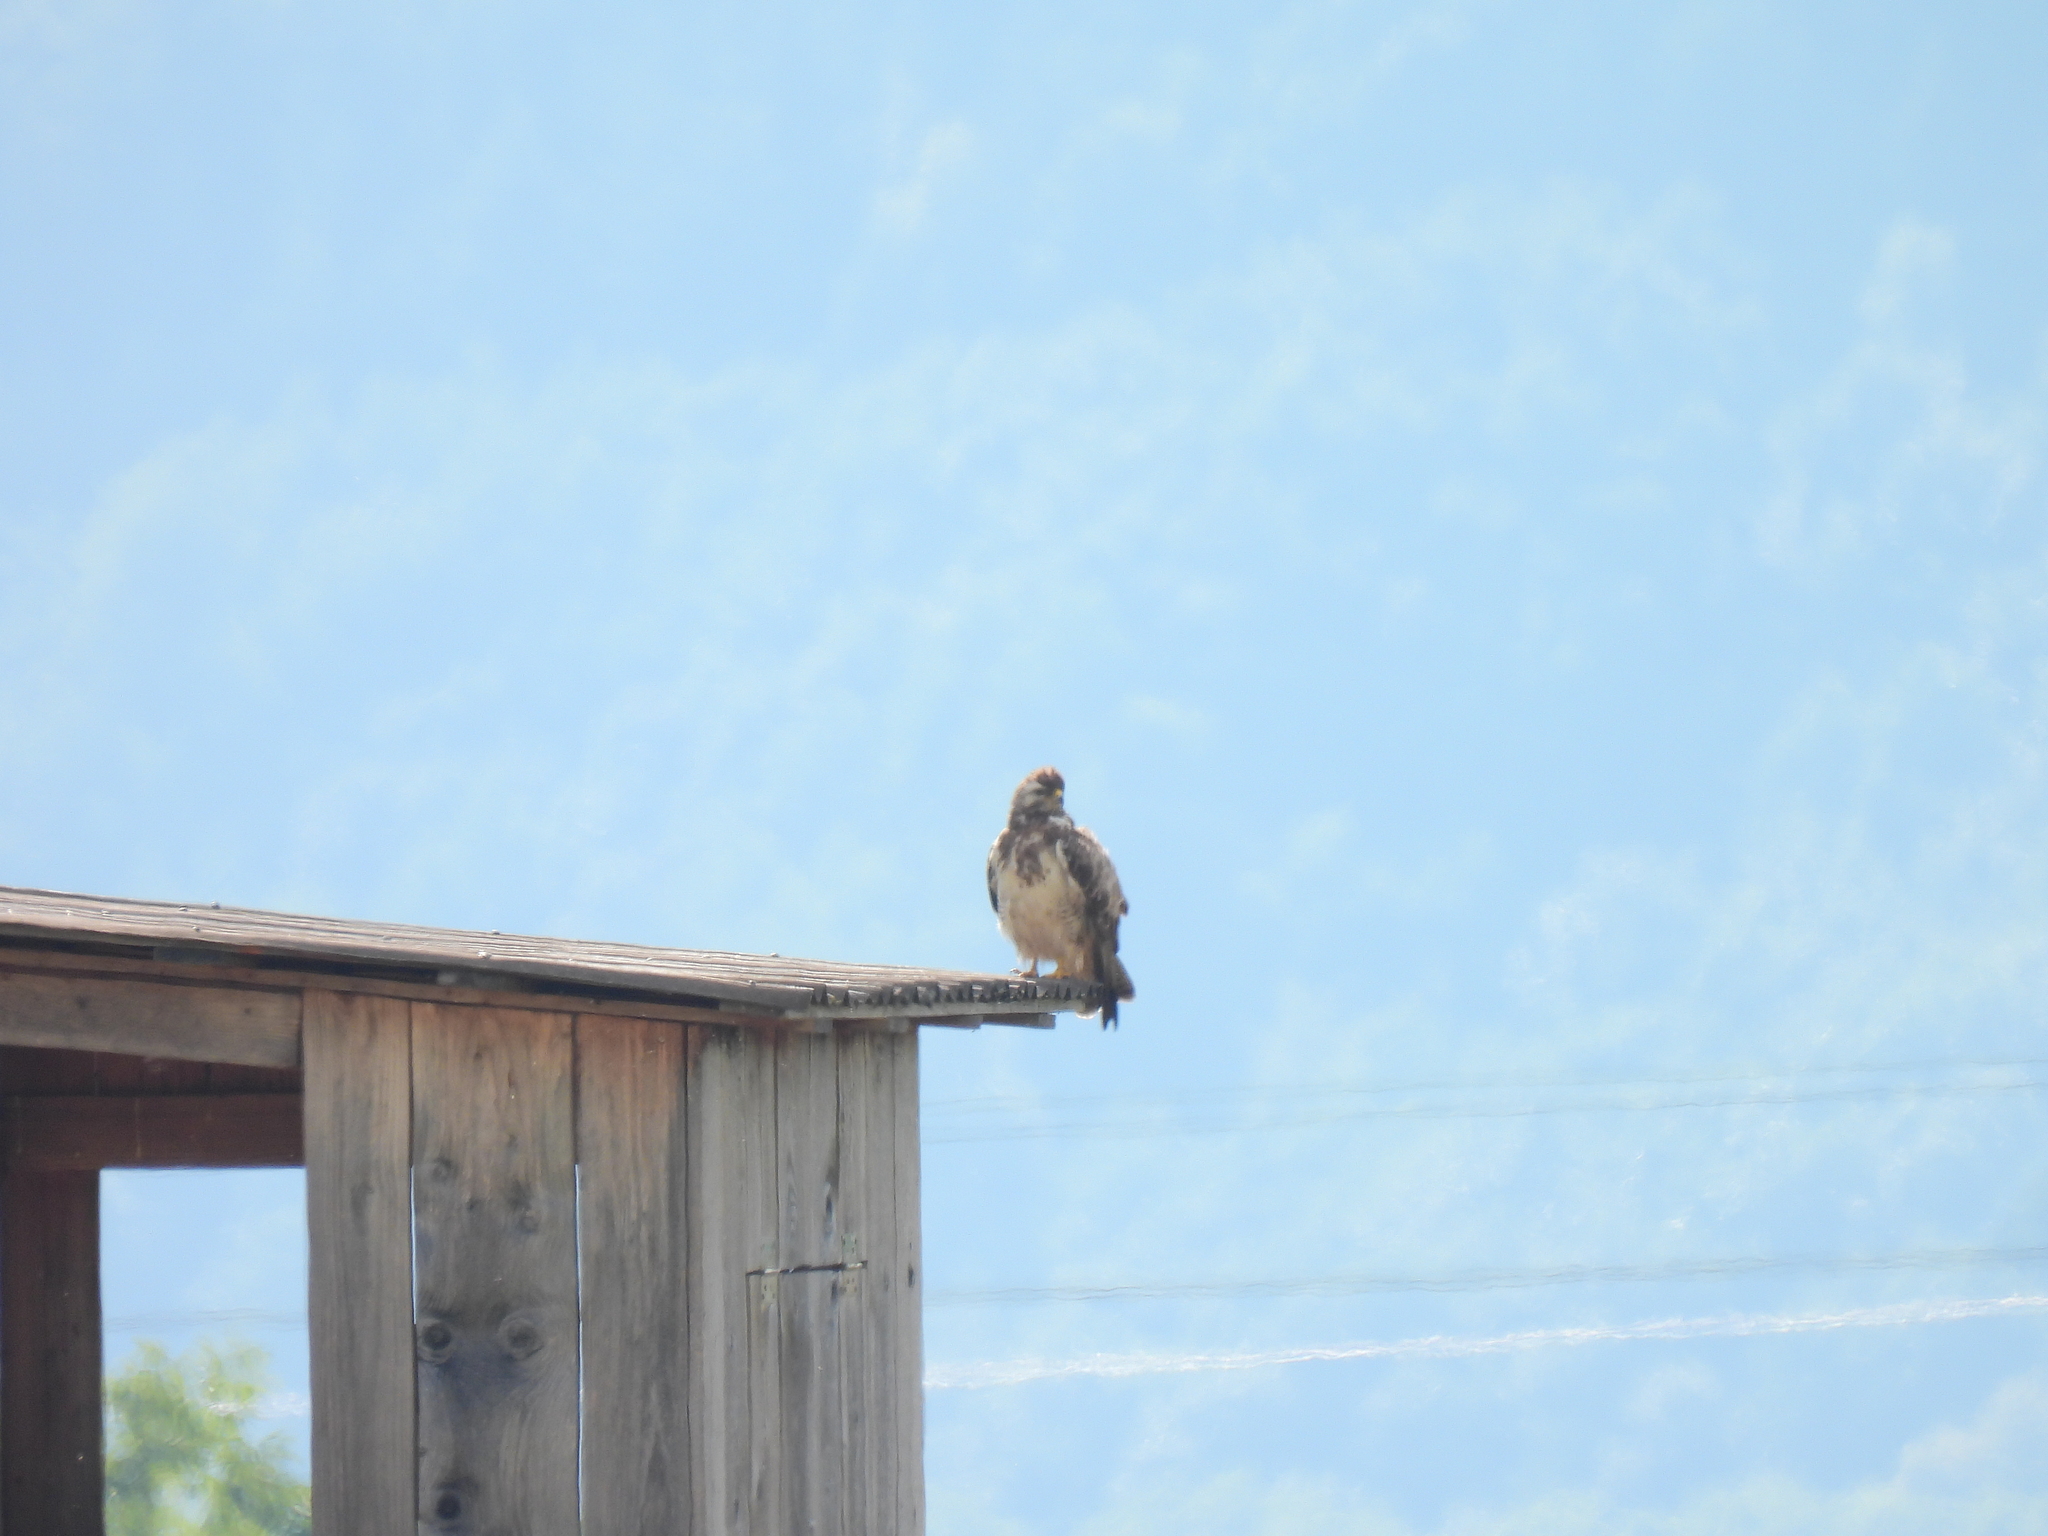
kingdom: Animalia
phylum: Chordata
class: Aves
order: Accipitriformes
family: Accipitridae
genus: Buteo
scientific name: Buteo buteo
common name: Common buzzard
